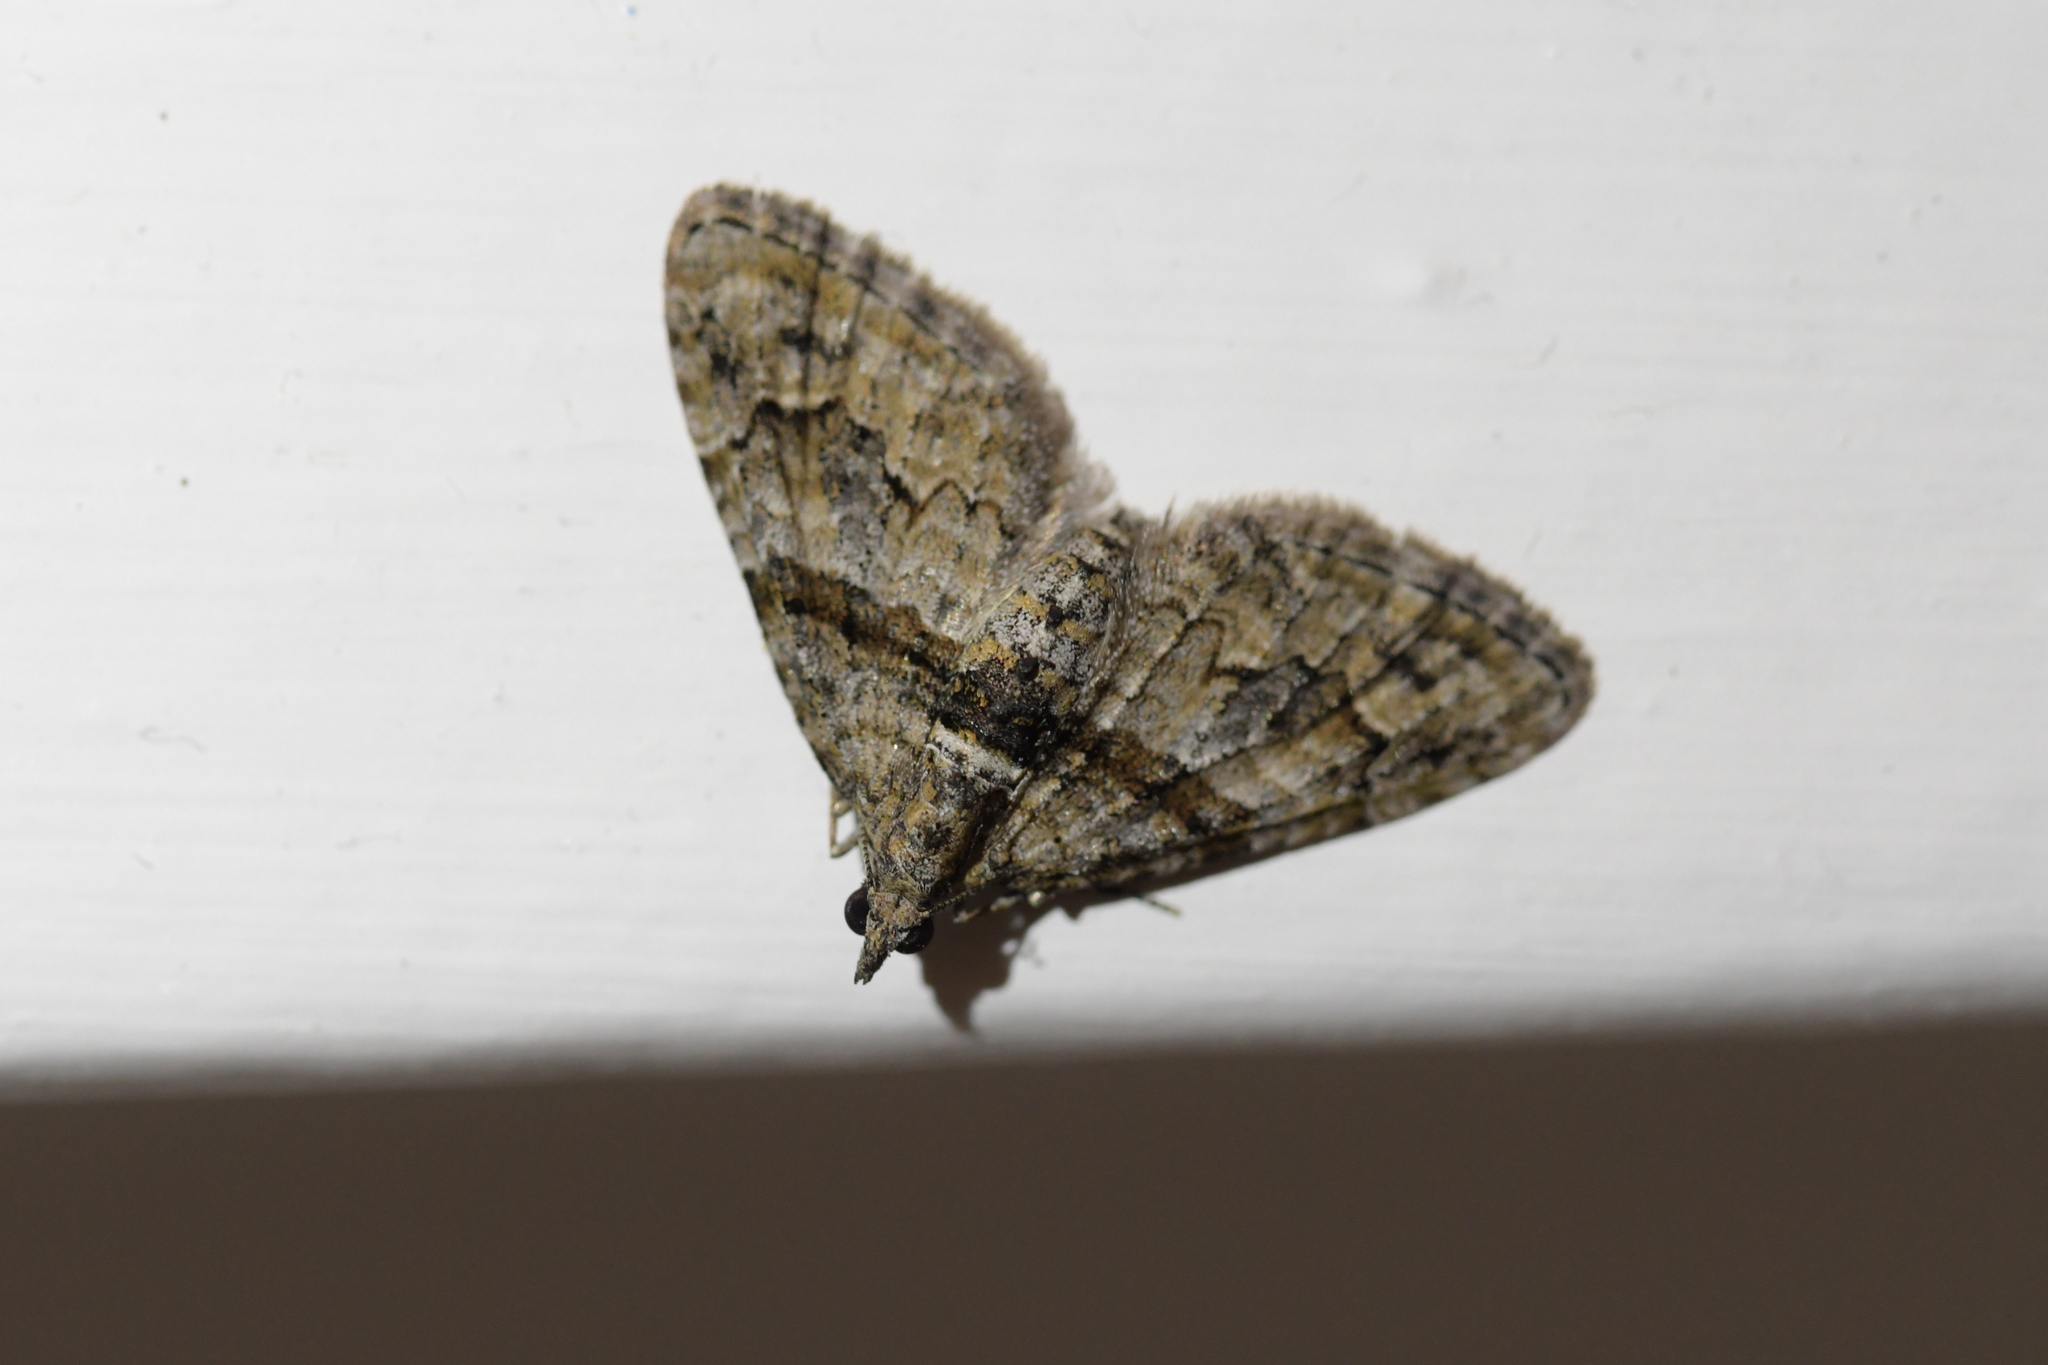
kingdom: Animalia
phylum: Arthropoda
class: Insecta
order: Lepidoptera
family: Geometridae
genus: Phrissogonus
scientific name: Phrissogonus laticostata
